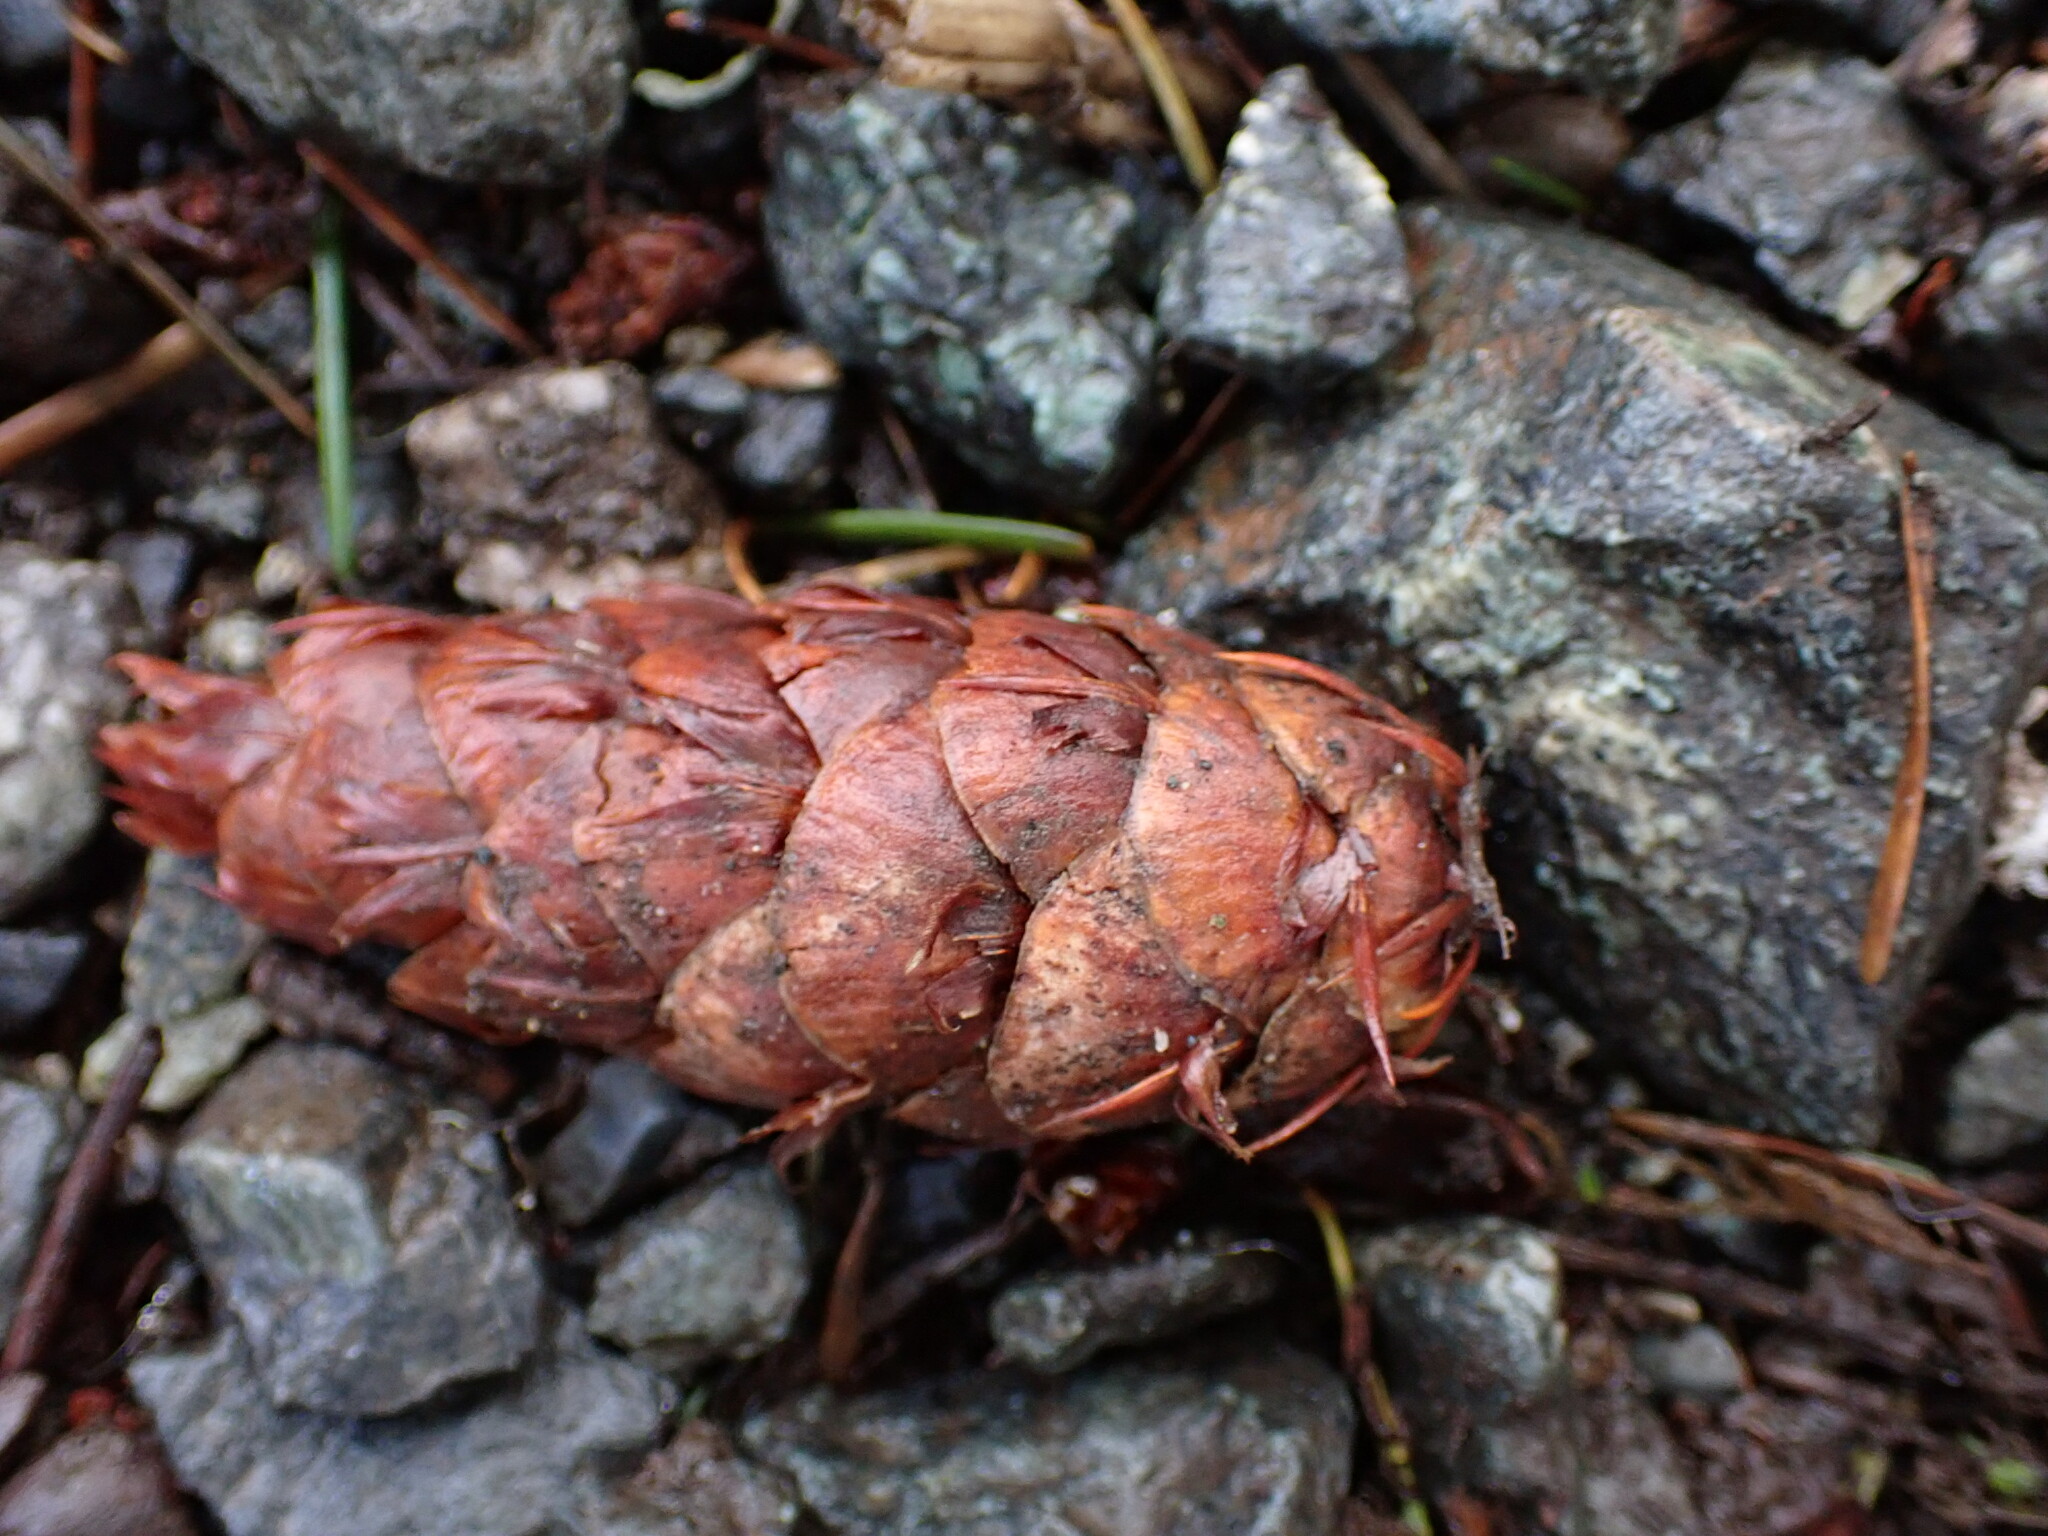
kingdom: Plantae
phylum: Tracheophyta
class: Pinopsida
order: Pinales
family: Pinaceae
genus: Pseudotsuga
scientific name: Pseudotsuga menziesii
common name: Douglas fir
